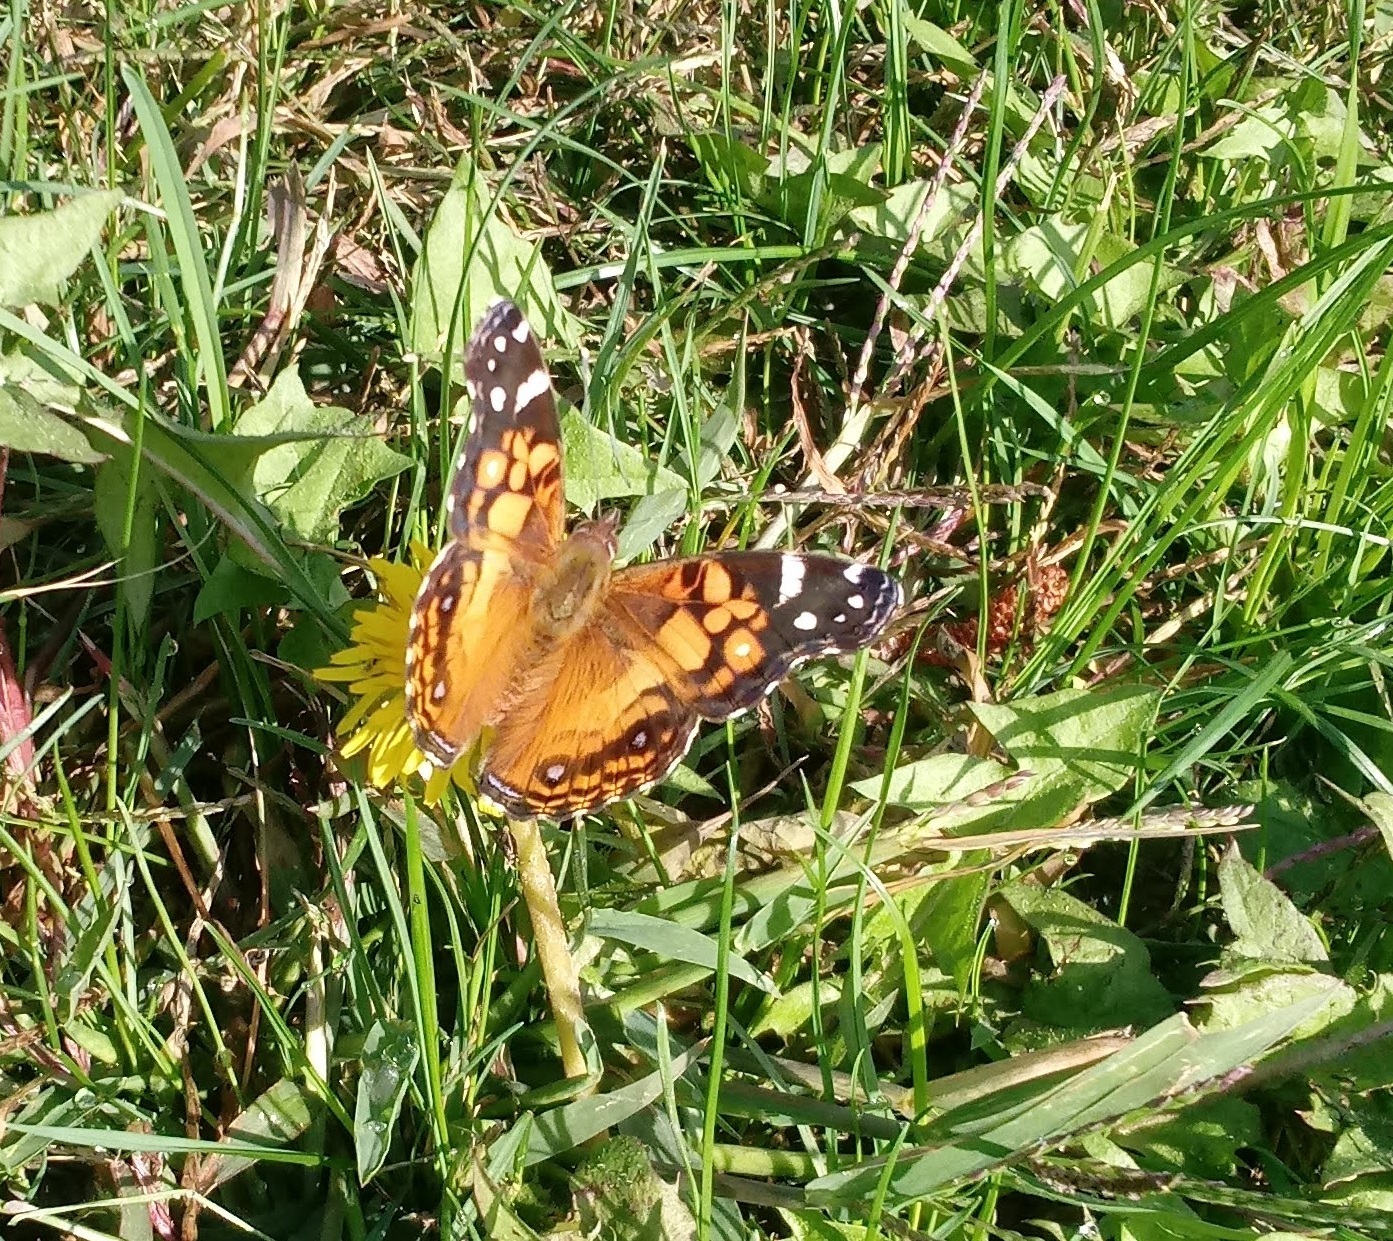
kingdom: Animalia
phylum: Arthropoda
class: Insecta
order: Lepidoptera
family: Nymphalidae
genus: Vanessa
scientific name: Vanessa virginiensis
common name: American lady
